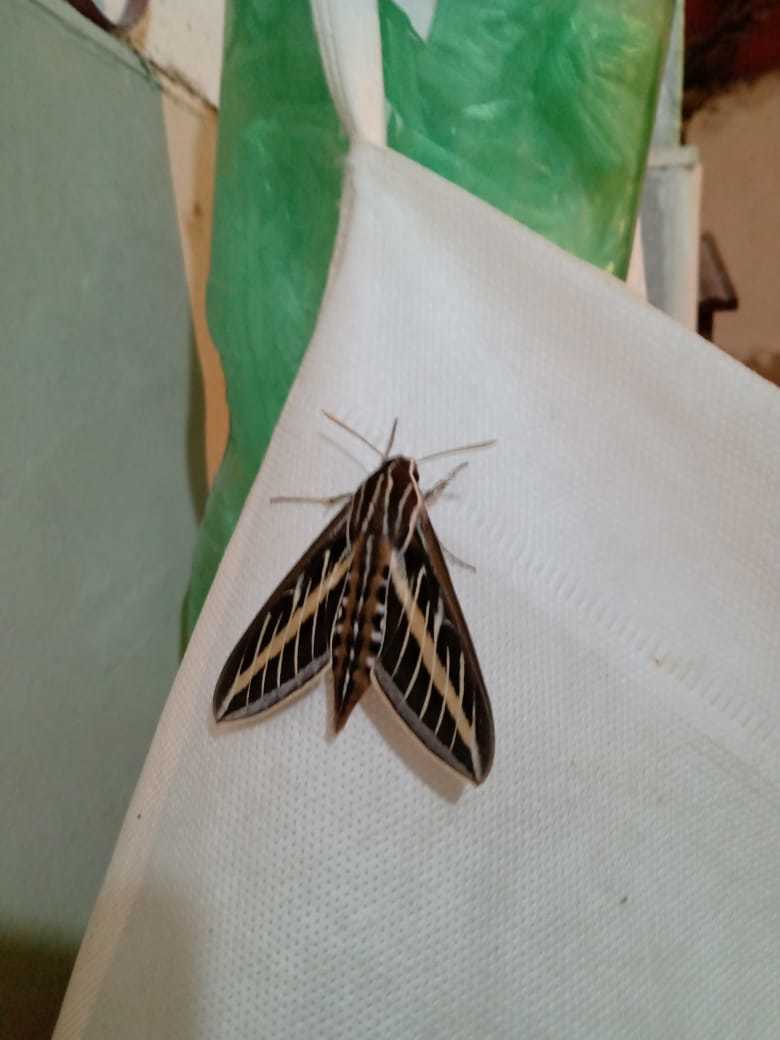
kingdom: Animalia
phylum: Arthropoda
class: Insecta
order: Lepidoptera
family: Sphingidae
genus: Hyles
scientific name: Hyles lineata
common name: White-lined sphinx
